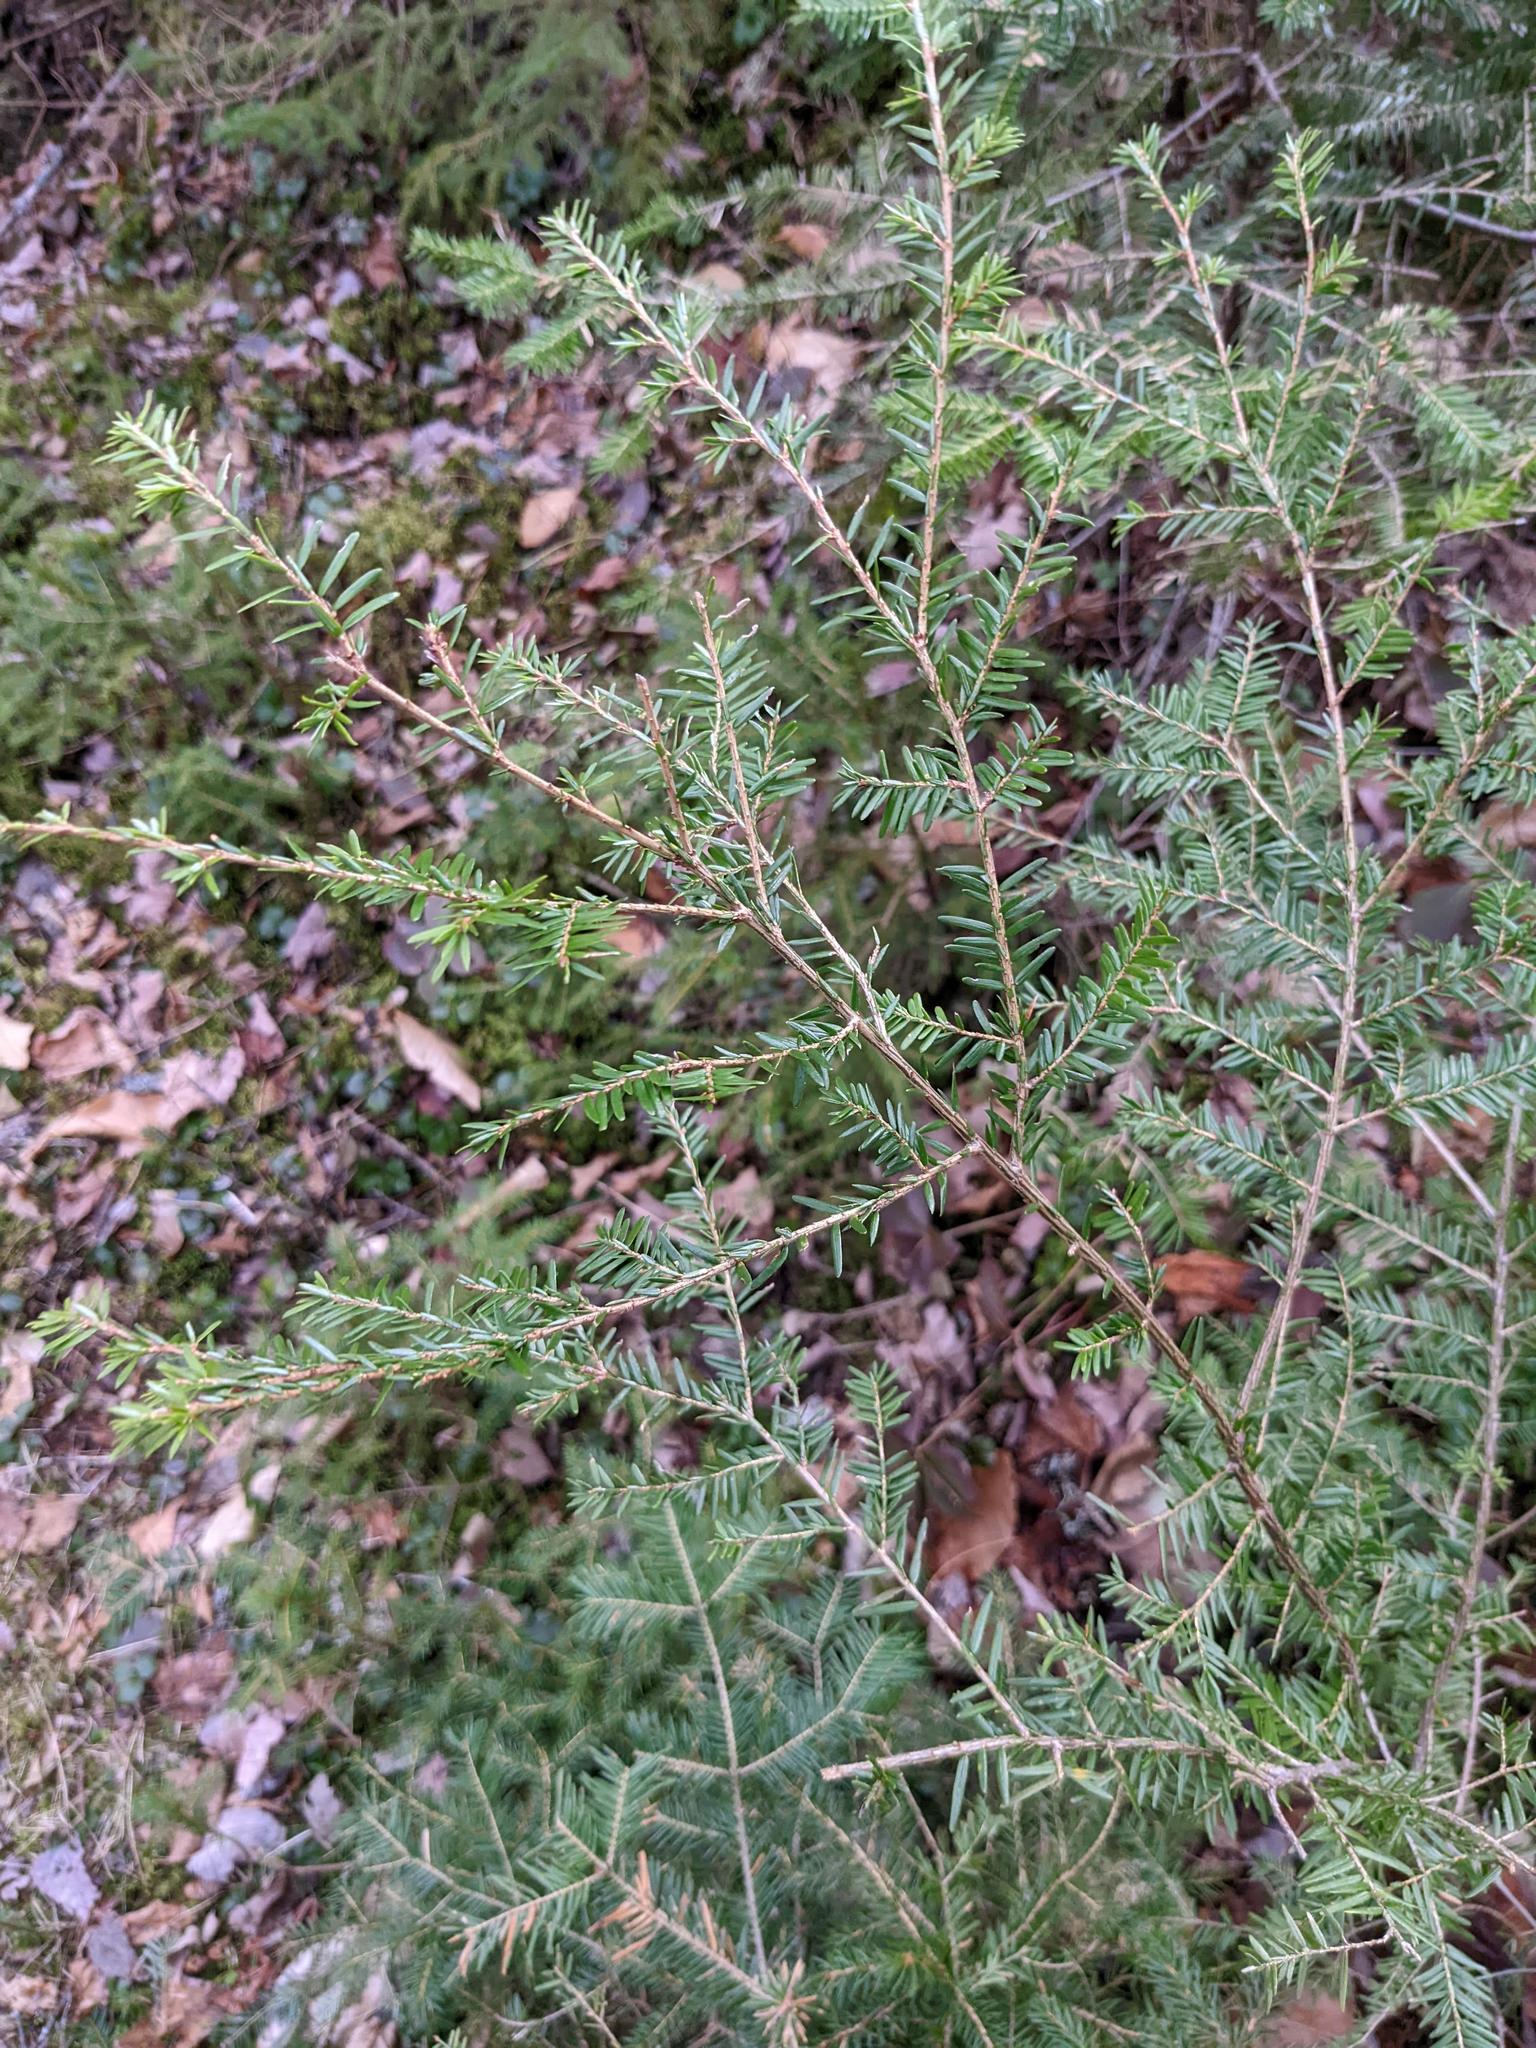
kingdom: Plantae
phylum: Tracheophyta
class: Pinopsida
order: Pinales
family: Pinaceae
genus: Tsuga
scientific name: Tsuga canadensis
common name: Eastern hemlock
